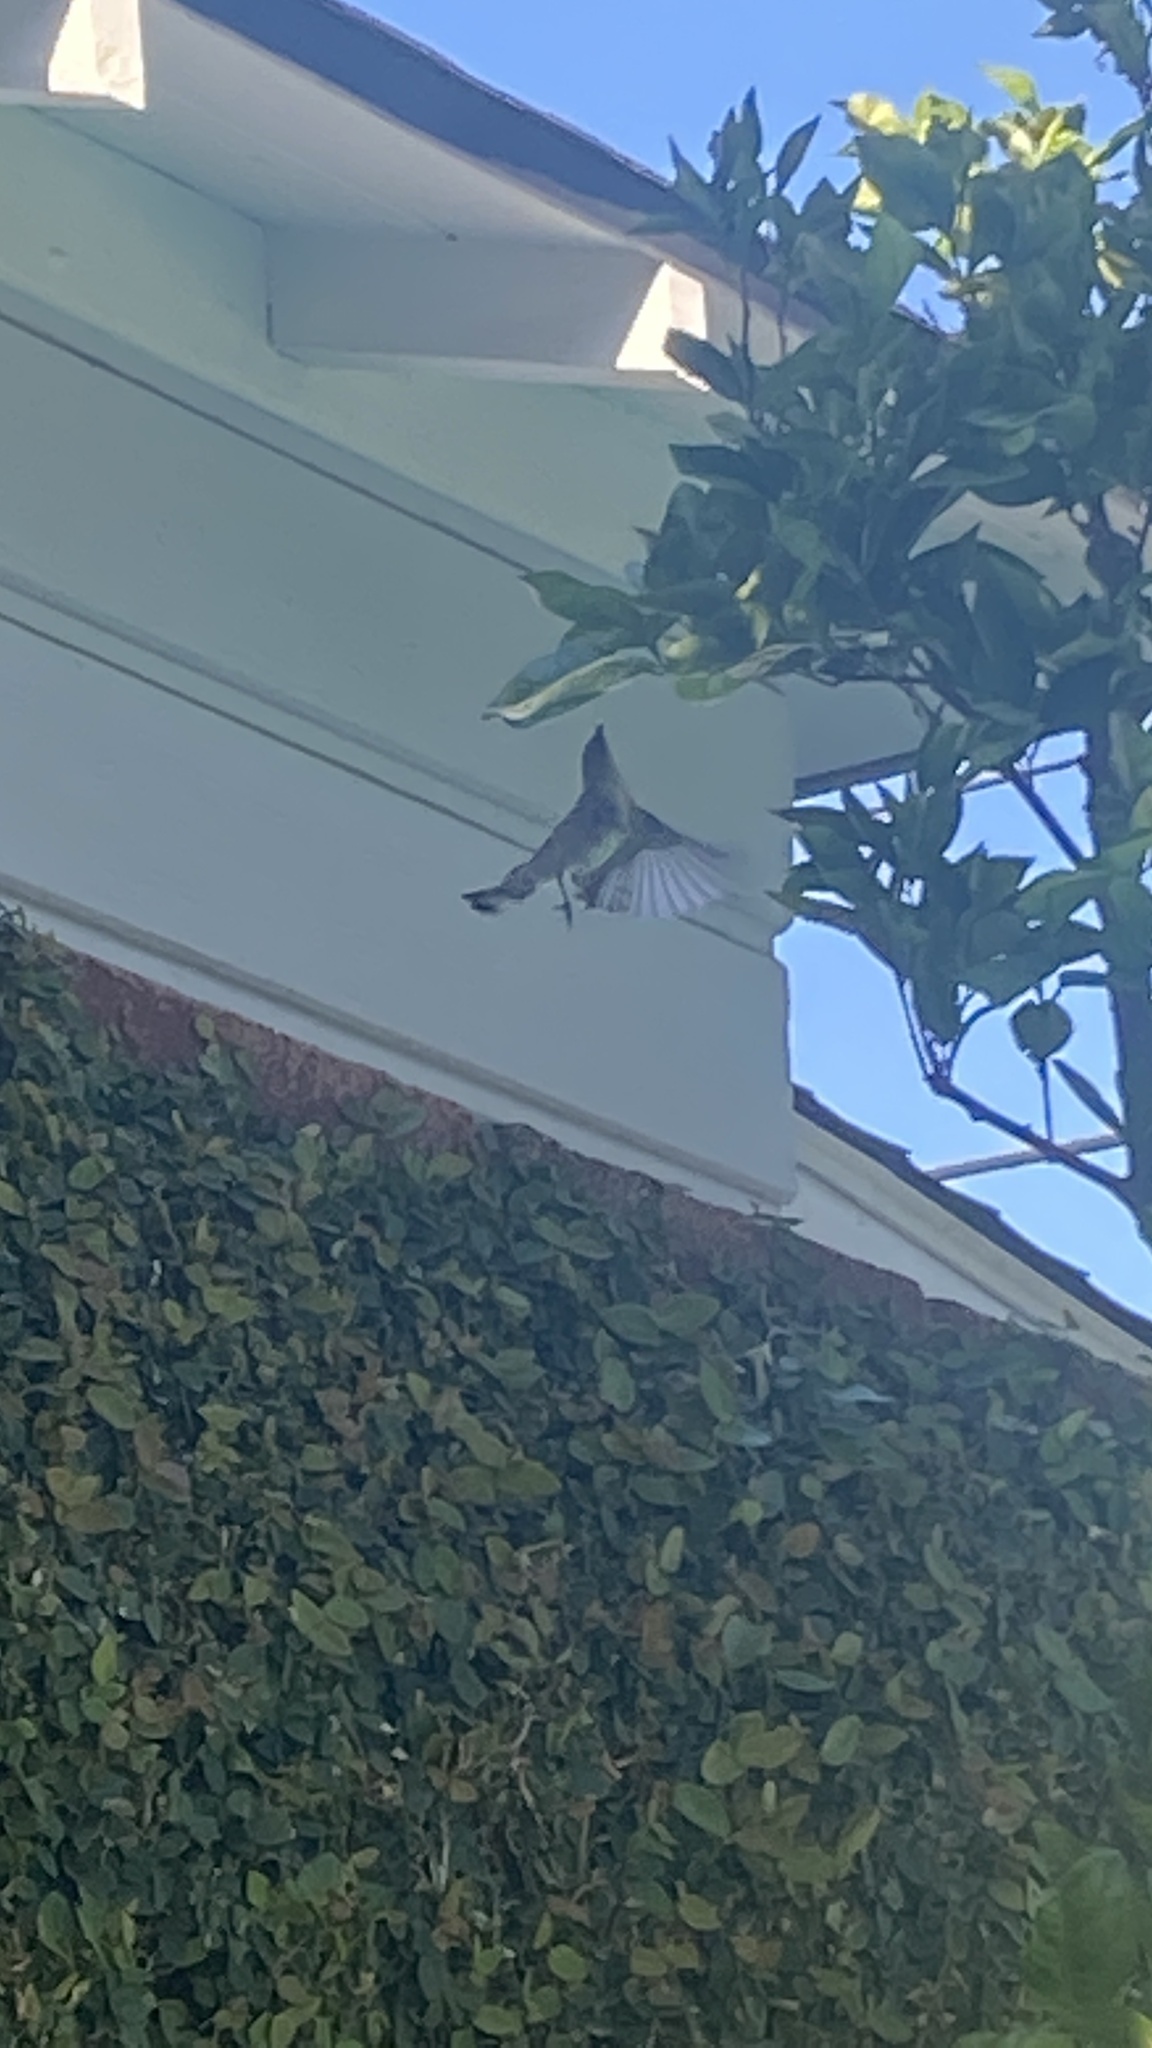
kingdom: Animalia
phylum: Chordata
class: Aves
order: Passeriformes
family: Parulidae
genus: Setophaga
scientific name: Setophaga coronata
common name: Myrtle warbler
